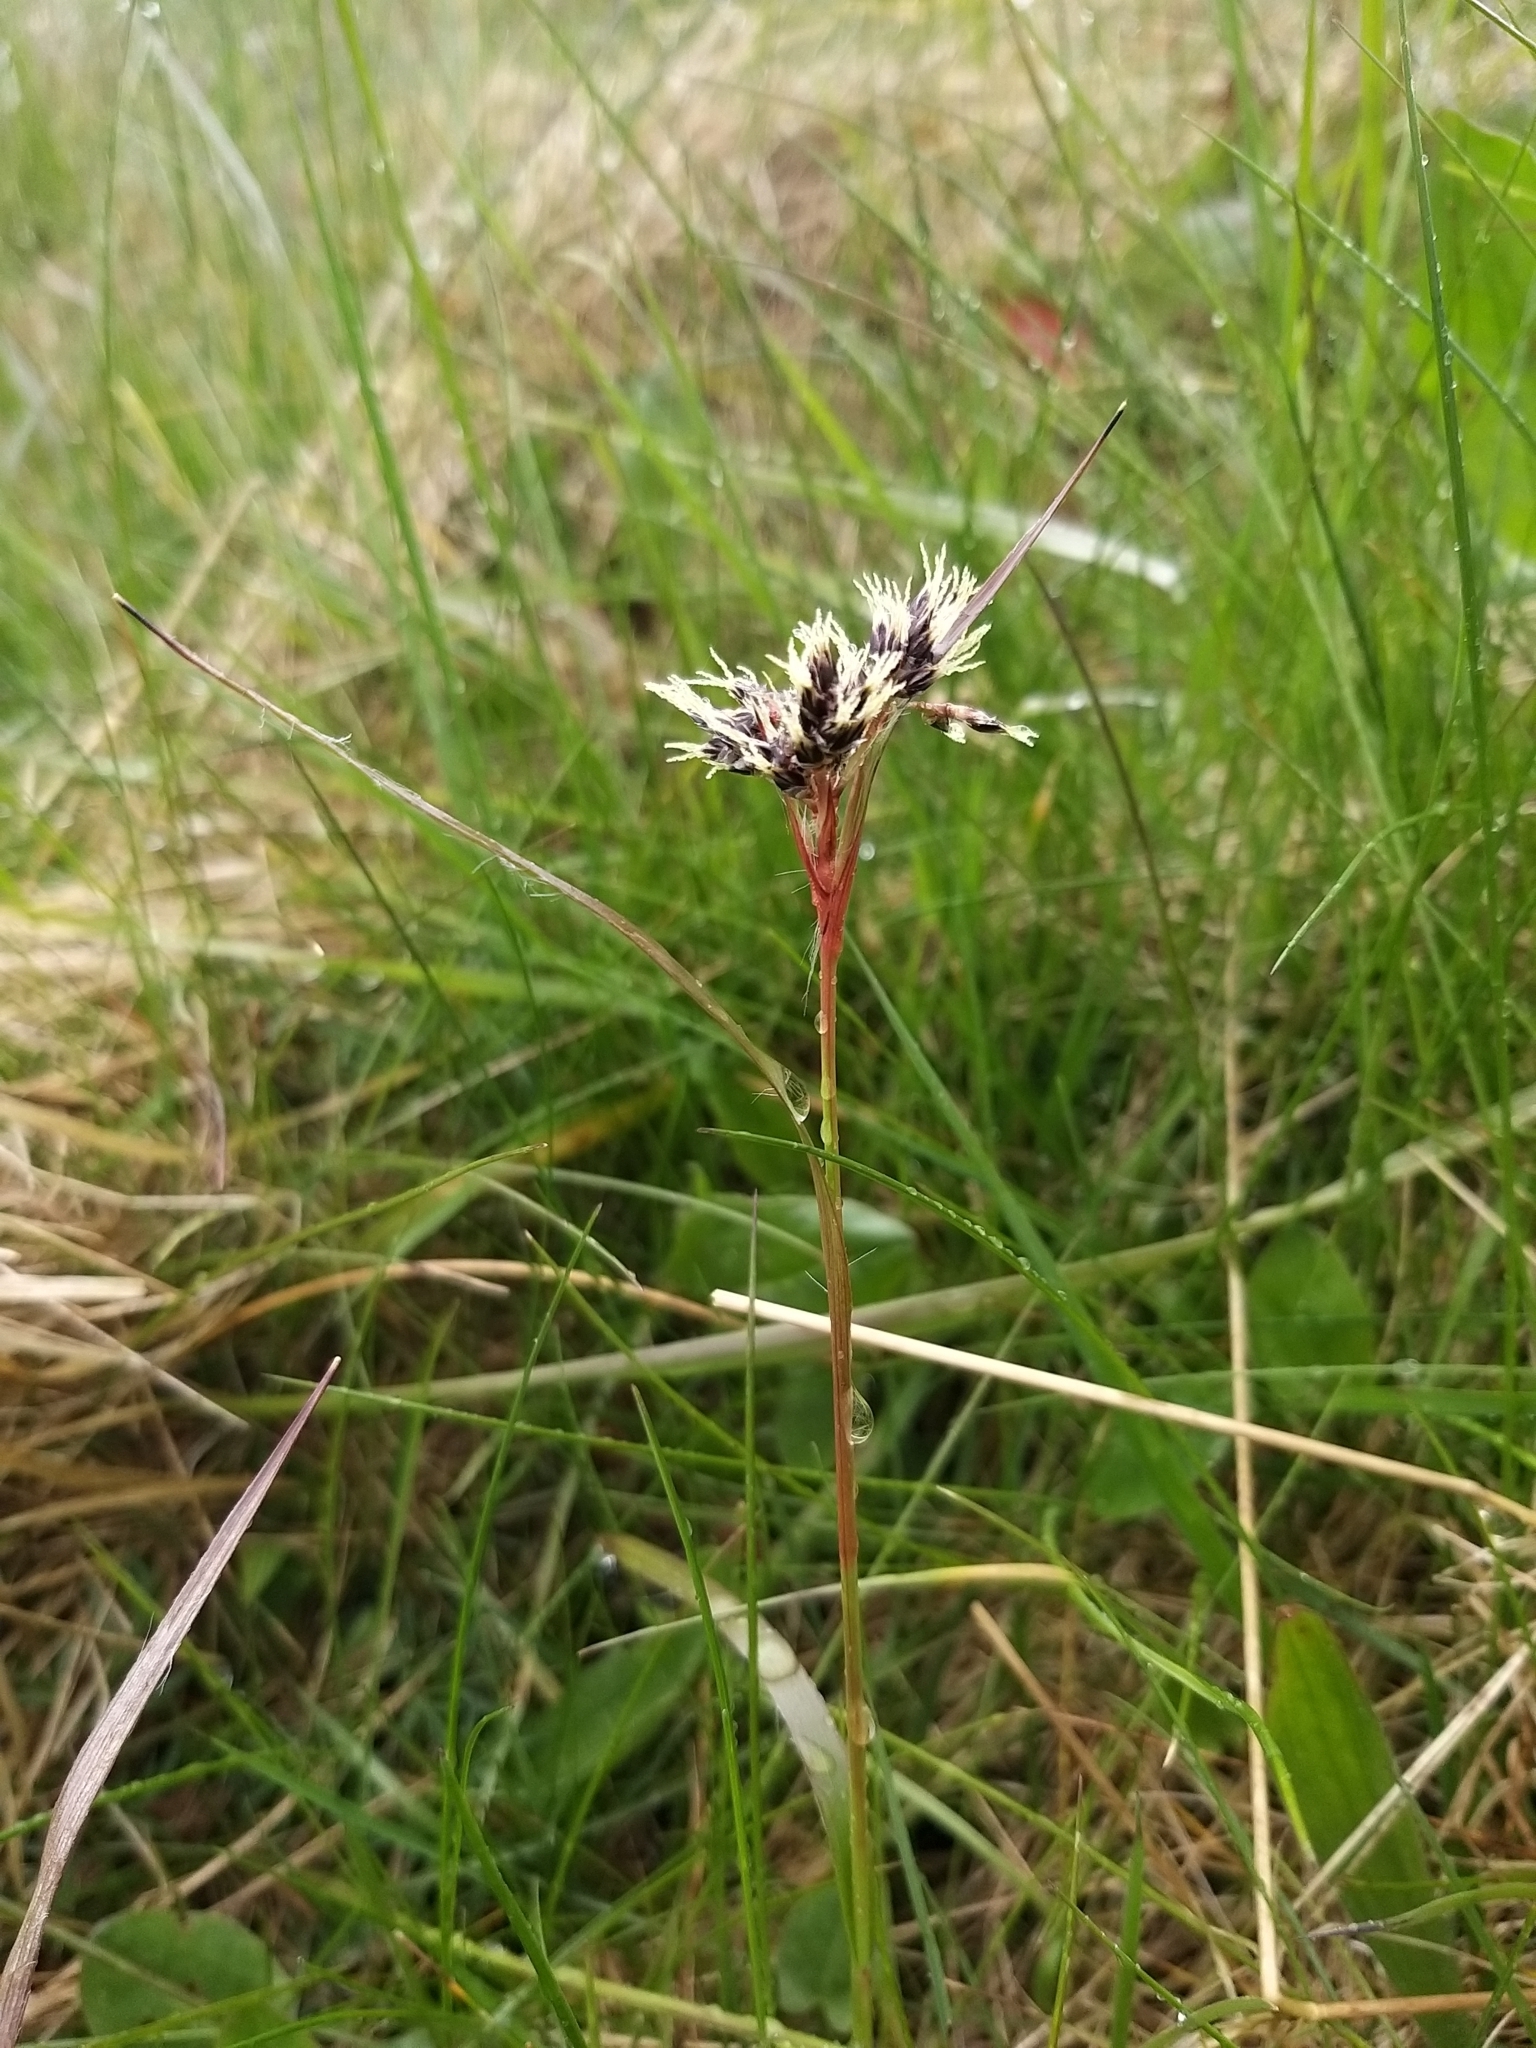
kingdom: Plantae
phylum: Tracheophyta
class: Liliopsida
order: Poales
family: Juncaceae
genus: Luzula
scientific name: Luzula campestris
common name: Field wood-rush
